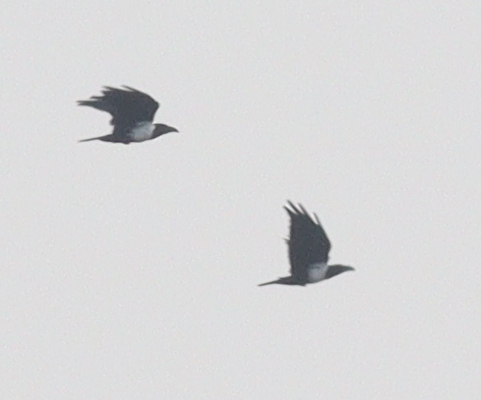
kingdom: Animalia
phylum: Chordata
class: Aves
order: Passeriformes
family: Corvidae
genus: Corvus
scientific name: Corvus albus
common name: Pied crow
